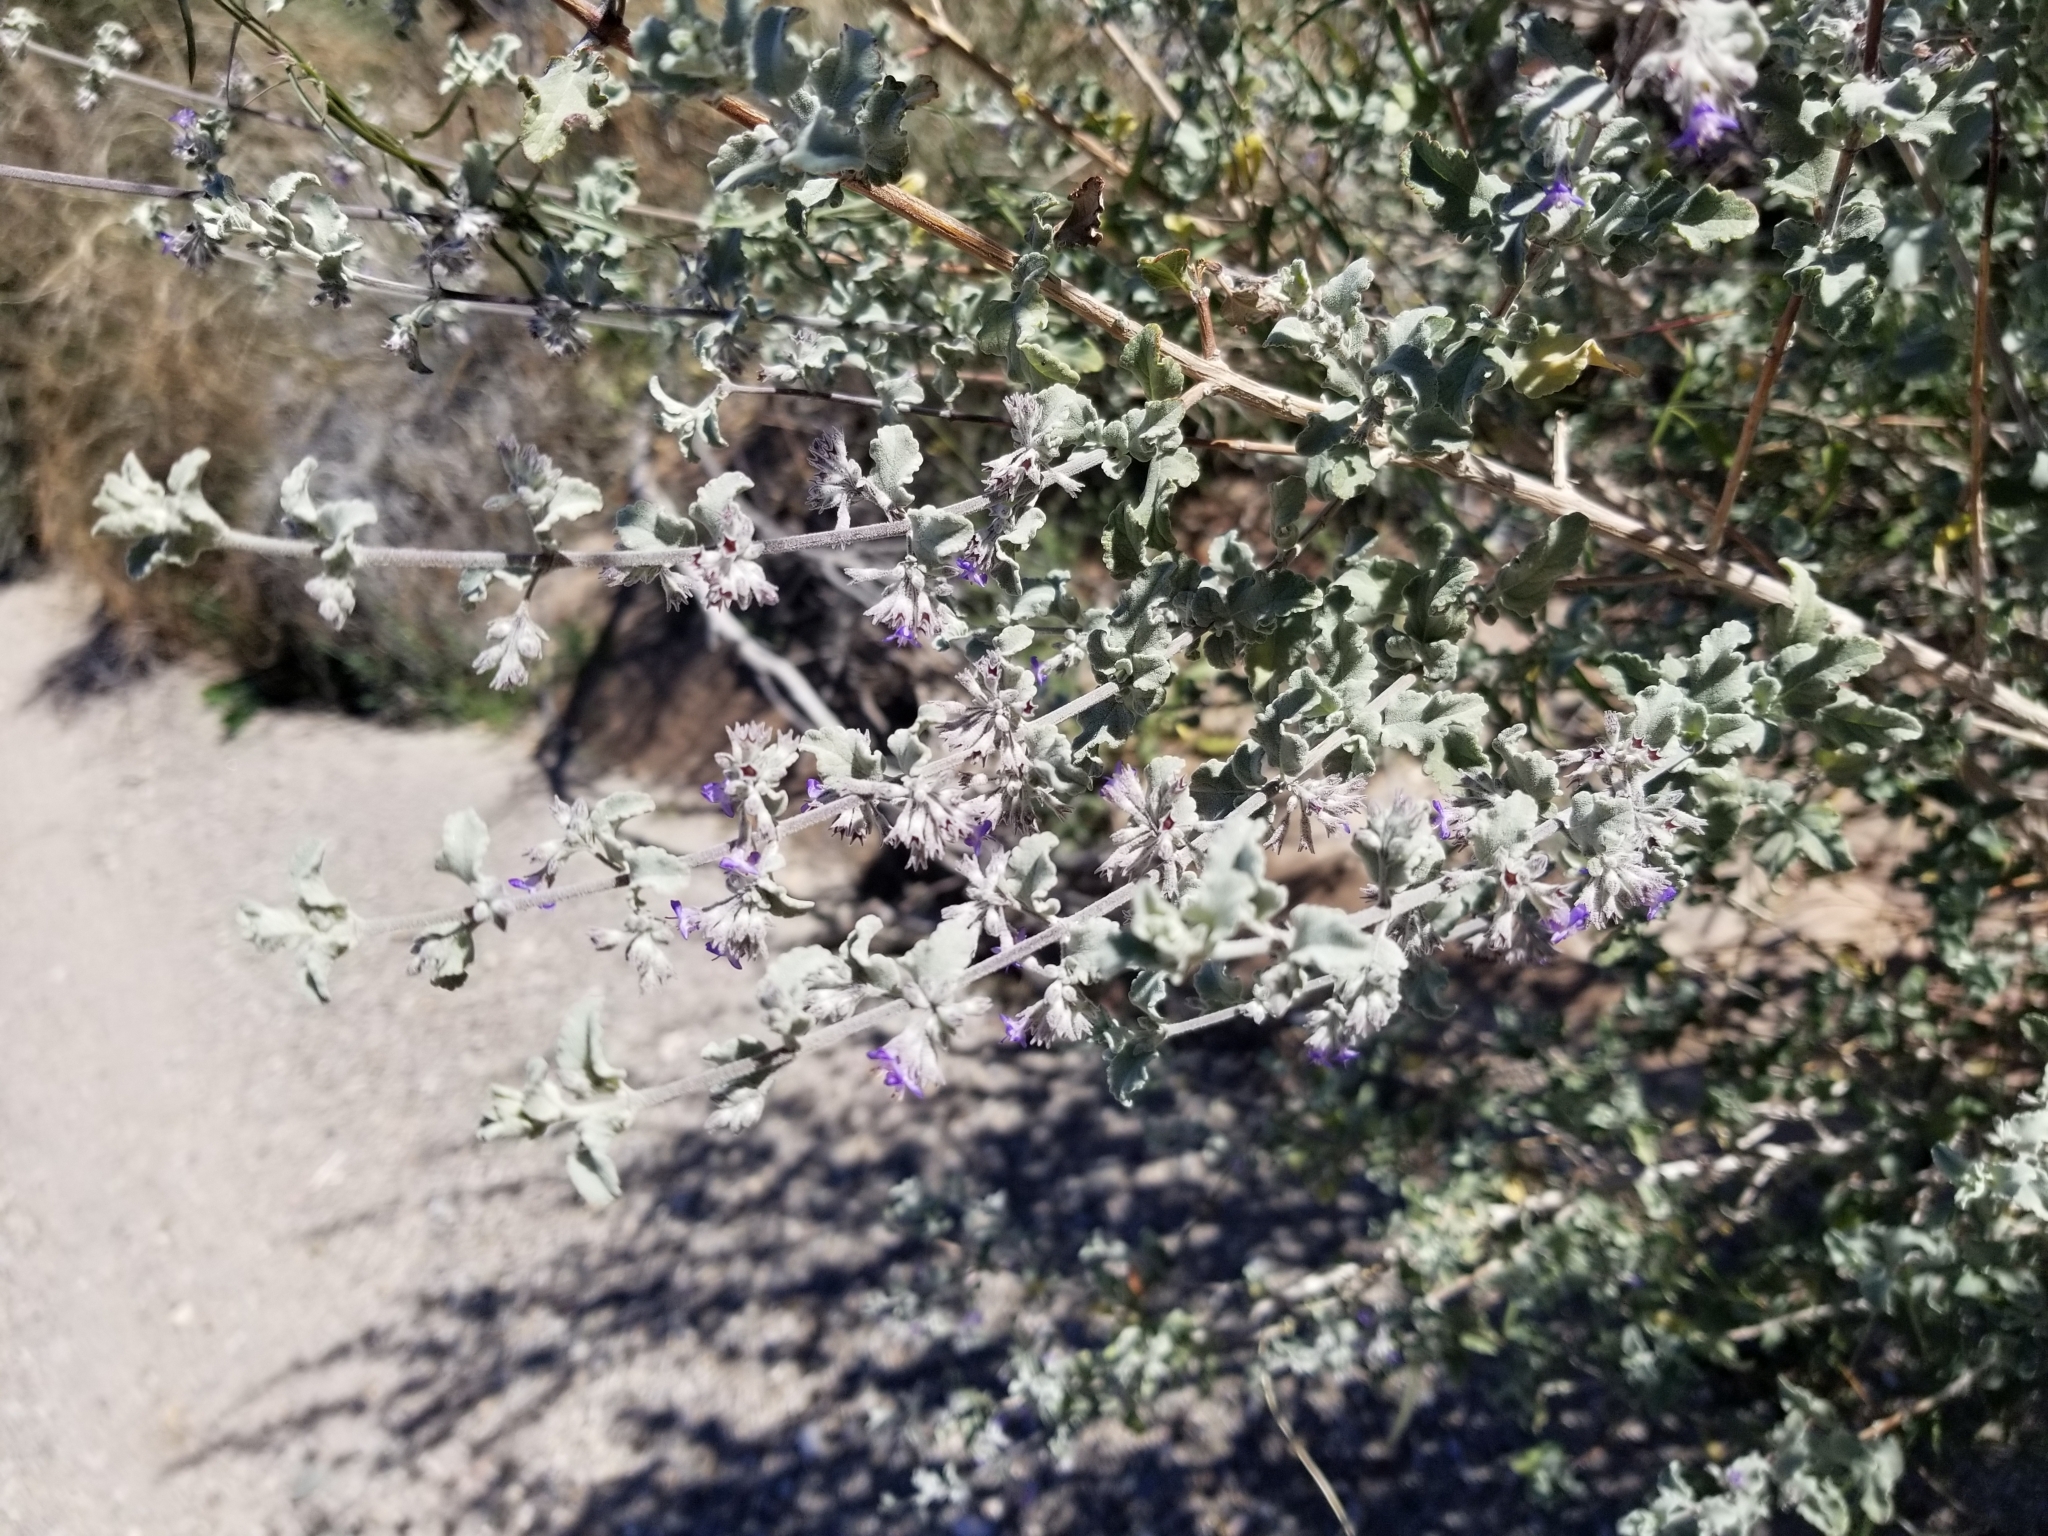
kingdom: Plantae
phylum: Tracheophyta
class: Magnoliopsida
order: Lamiales
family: Lamiaceae
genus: Condea
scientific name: Condea emoryi
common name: Chia
